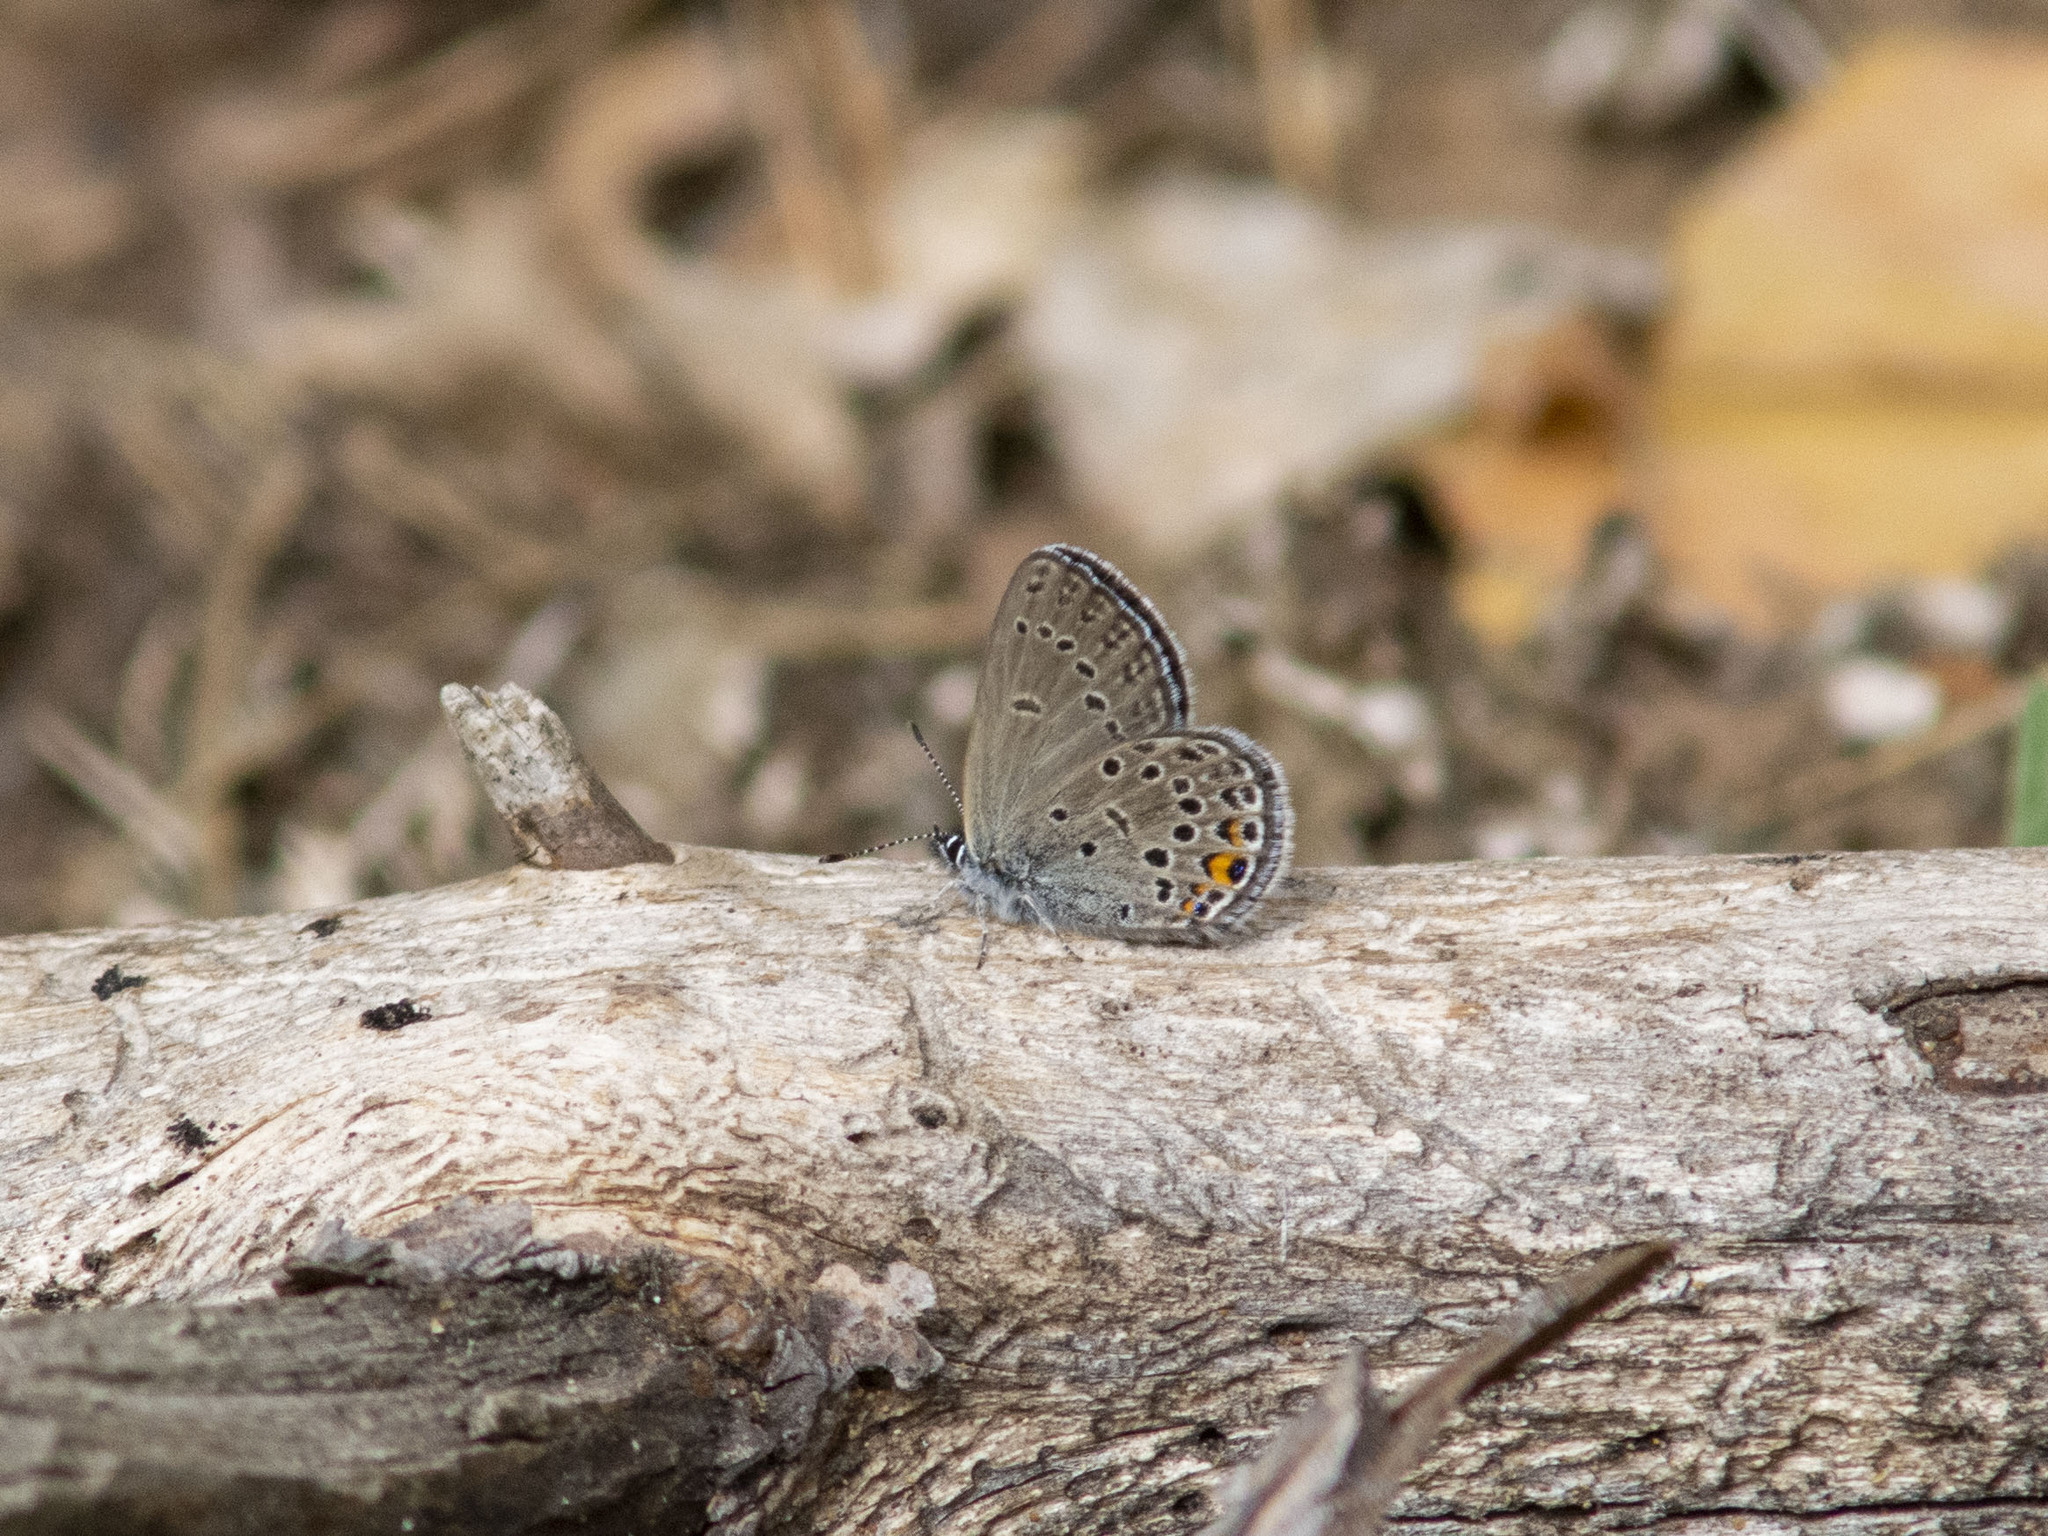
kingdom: Animalia
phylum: Arthropoda
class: Insecta
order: Lepidoptera
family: Lycaenidae
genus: Vacciniina
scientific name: Vacciniina optilete
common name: Cranberry blue
